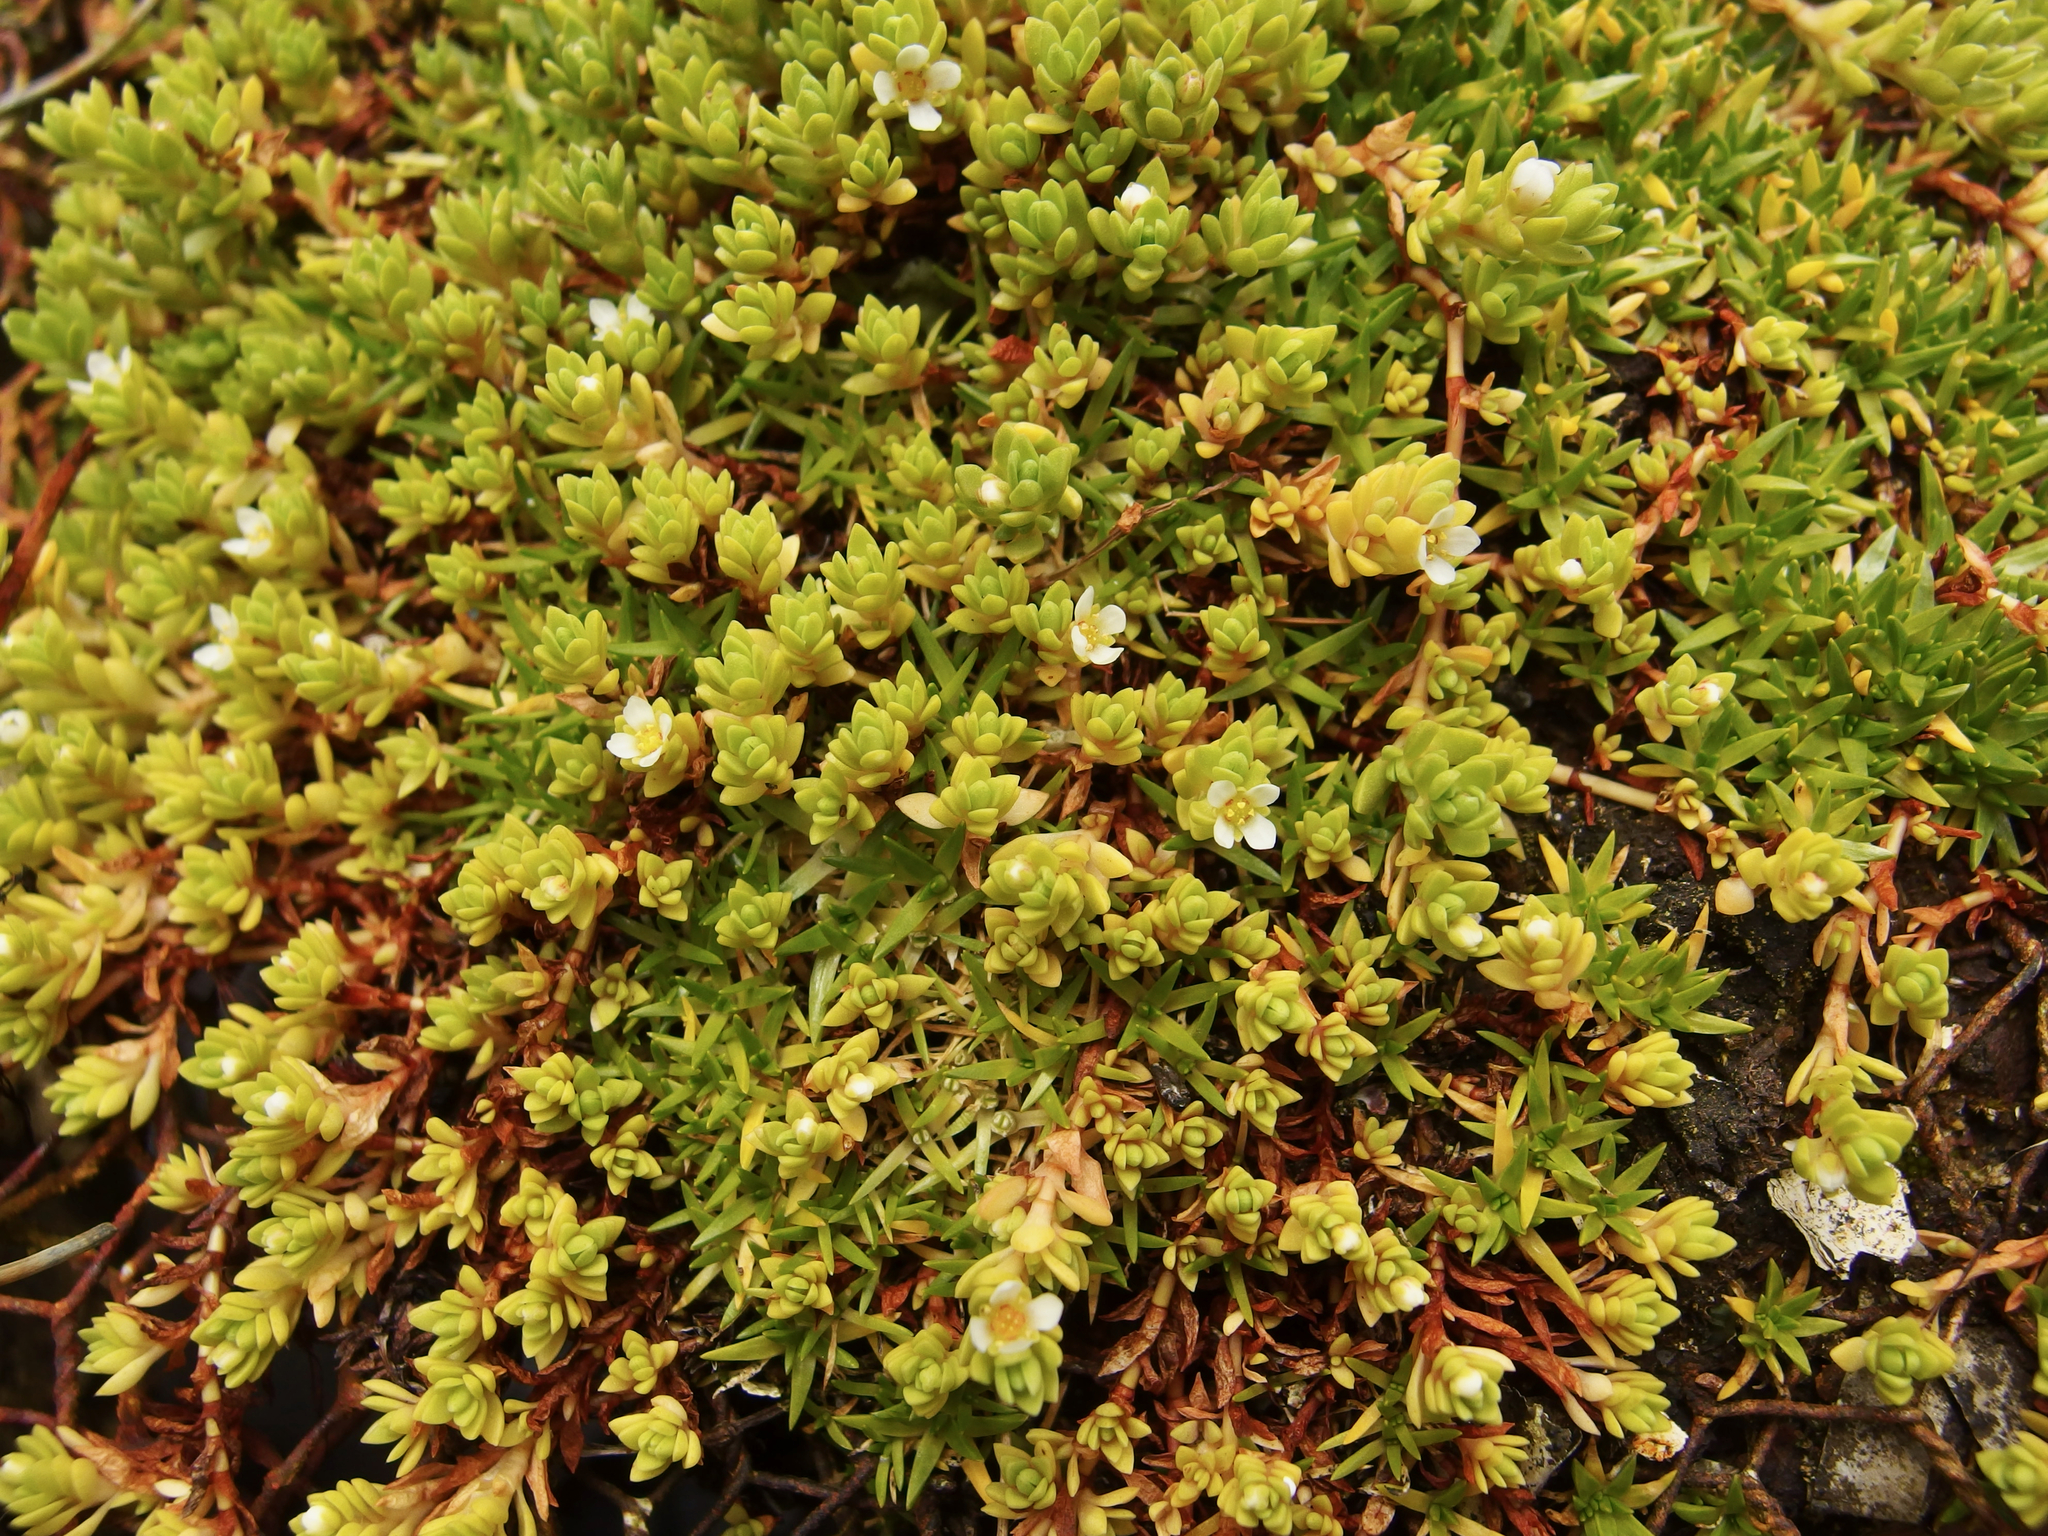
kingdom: Plantae
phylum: Tracheophyta
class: Magnoliopsida
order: Saxifragales
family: Crassulaceae
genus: Crassula
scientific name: Crassula moschata
